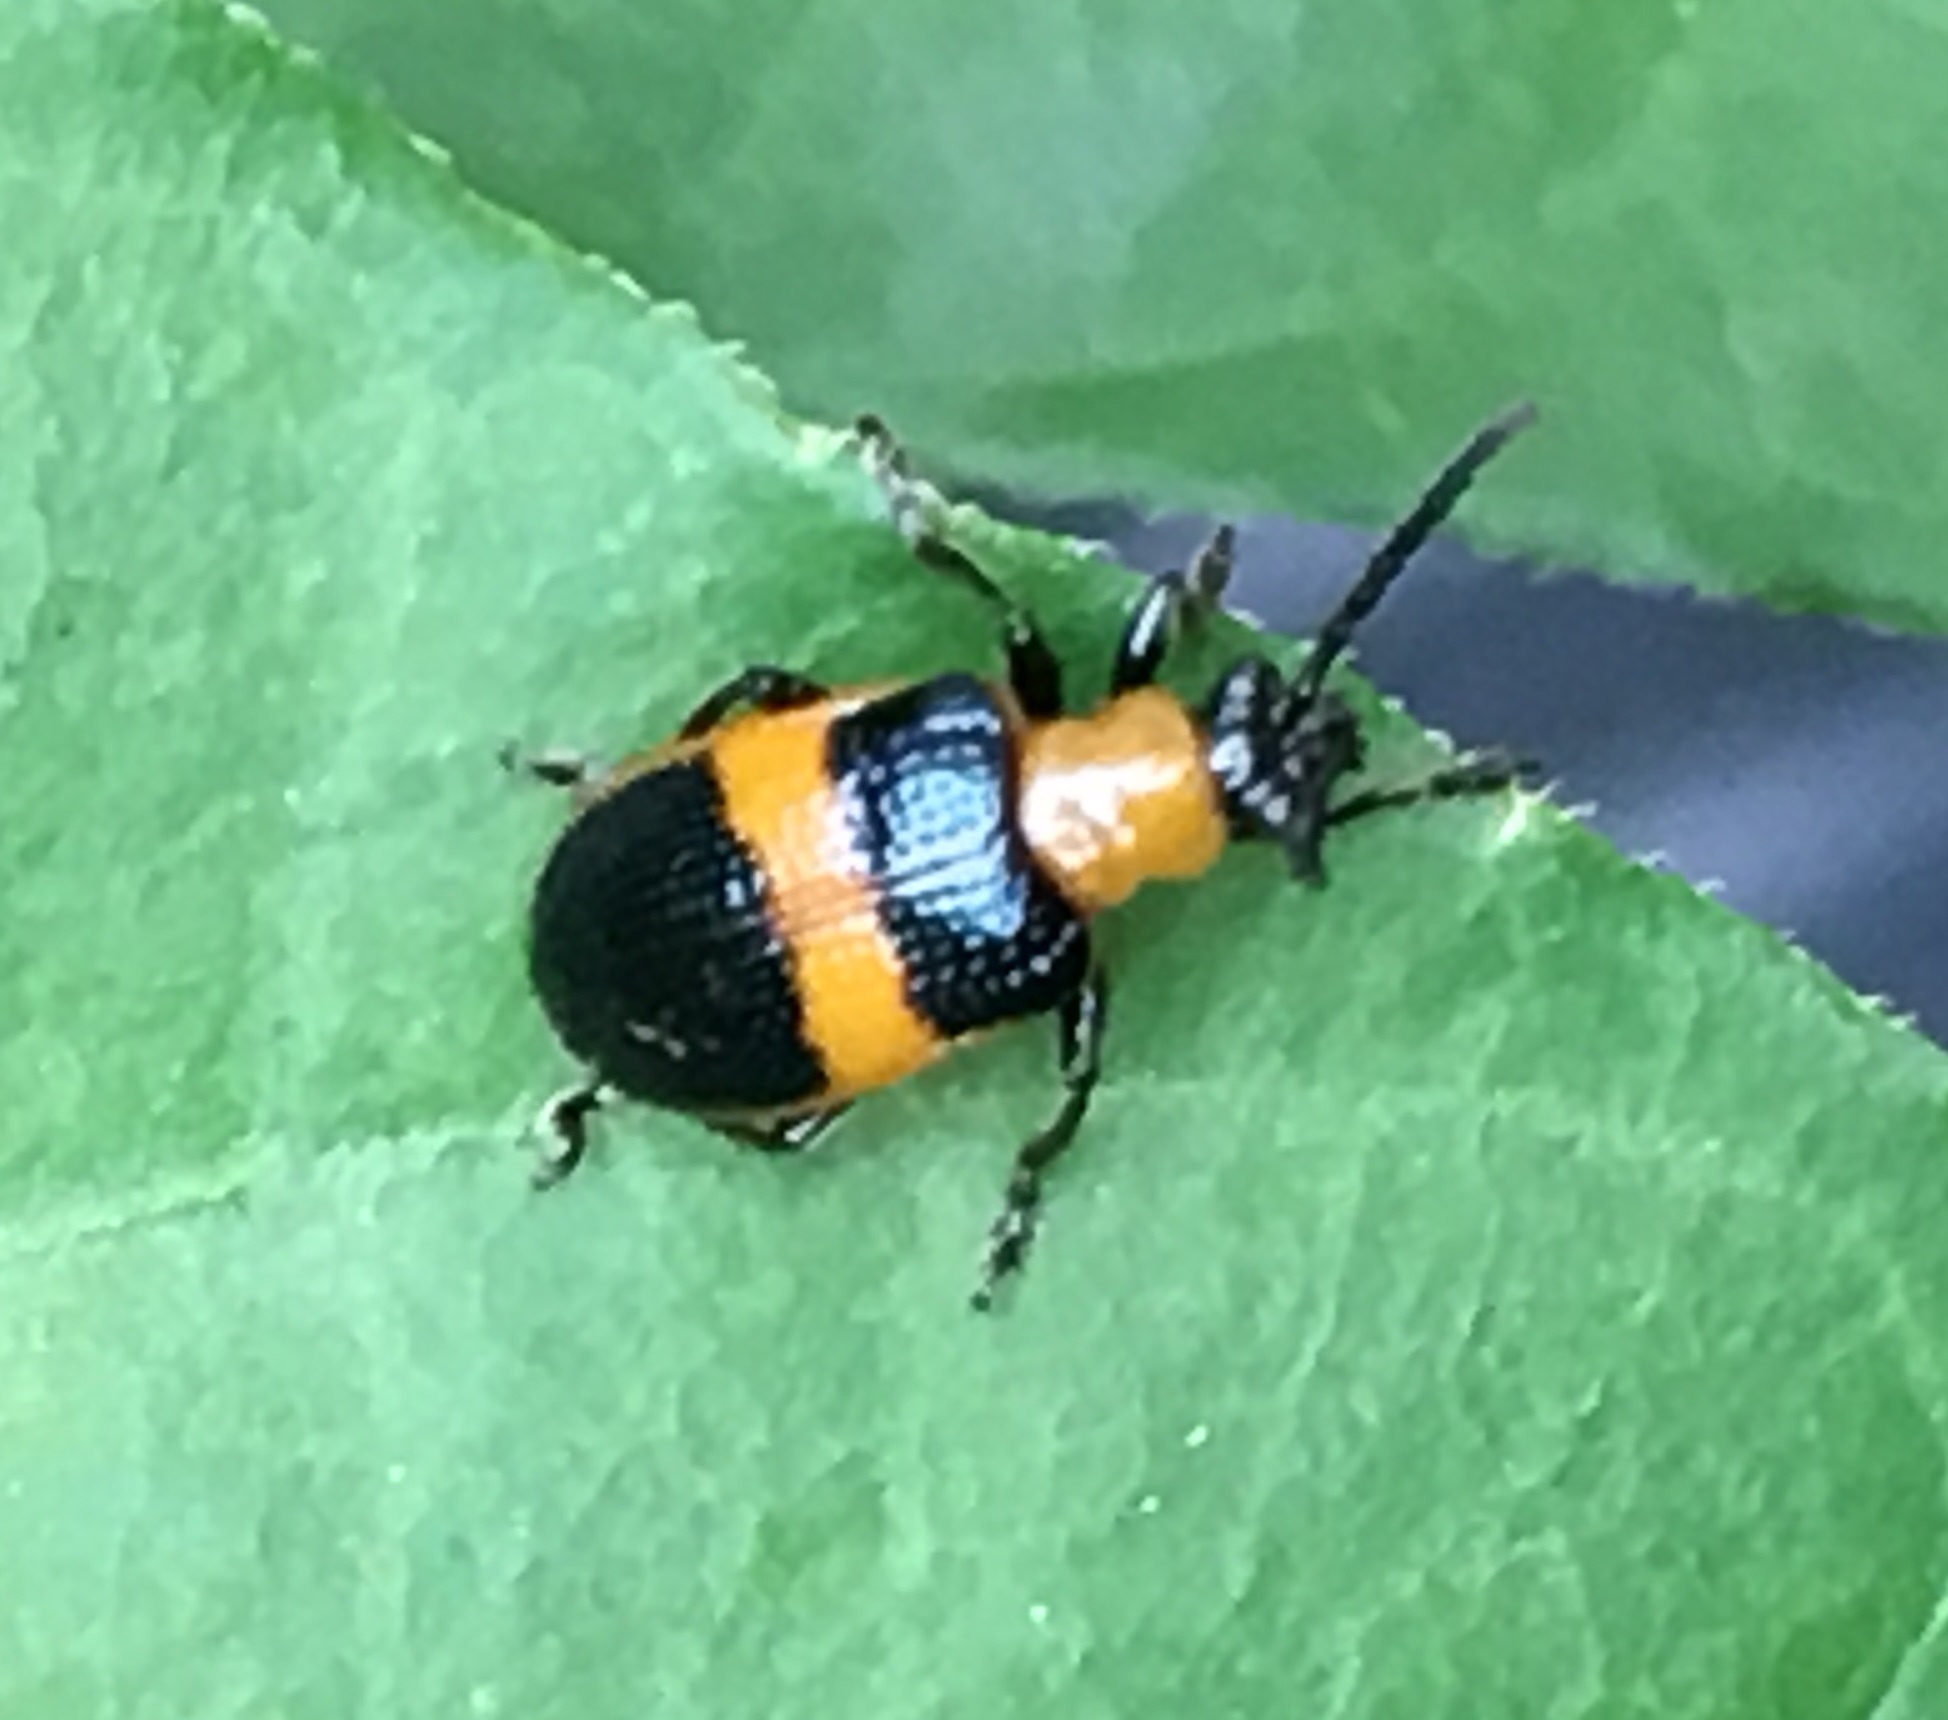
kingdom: Animalia
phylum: Arthropoda
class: Insecta
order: Coleoptera
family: Chrysomelidae
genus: Lema
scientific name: Lema solani
